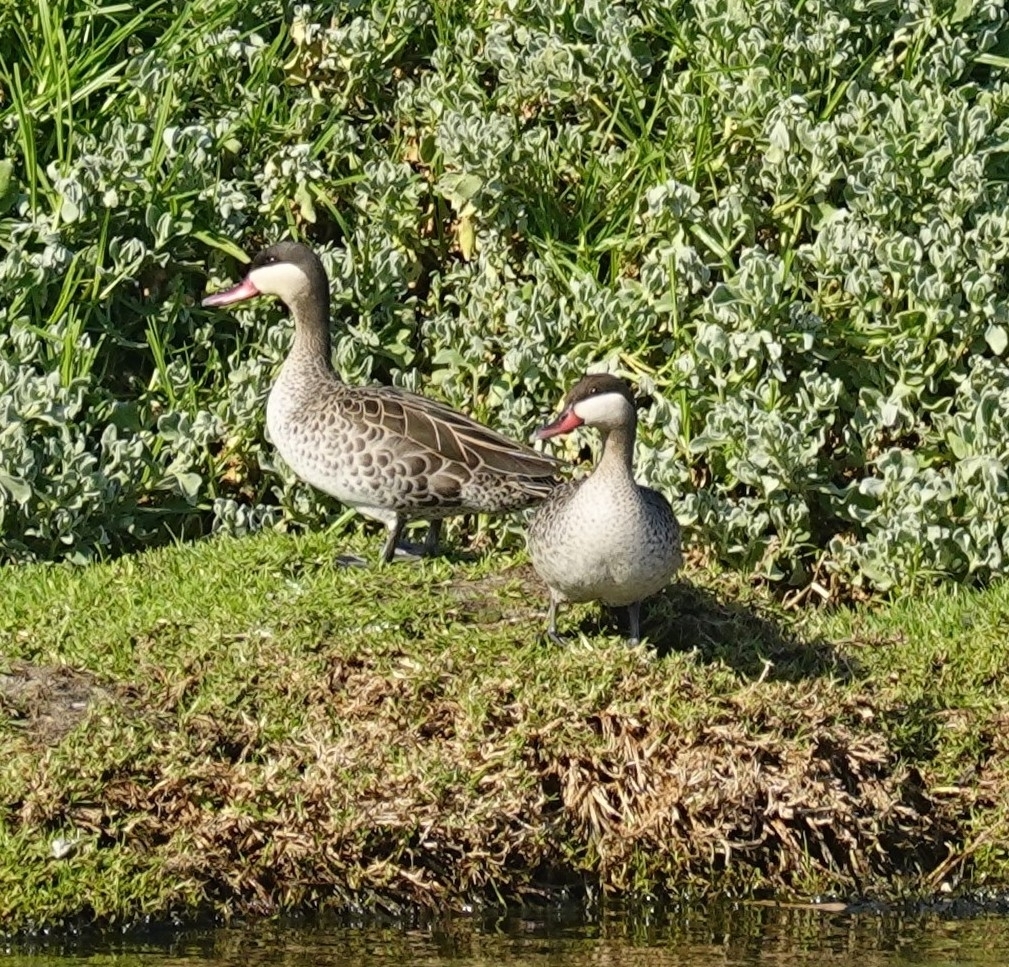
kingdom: Animalia
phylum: Chordata
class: Aves
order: Anseriformes
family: Anatidae
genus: Anas
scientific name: Anas erythrorhyncha
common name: Red-billed teal
